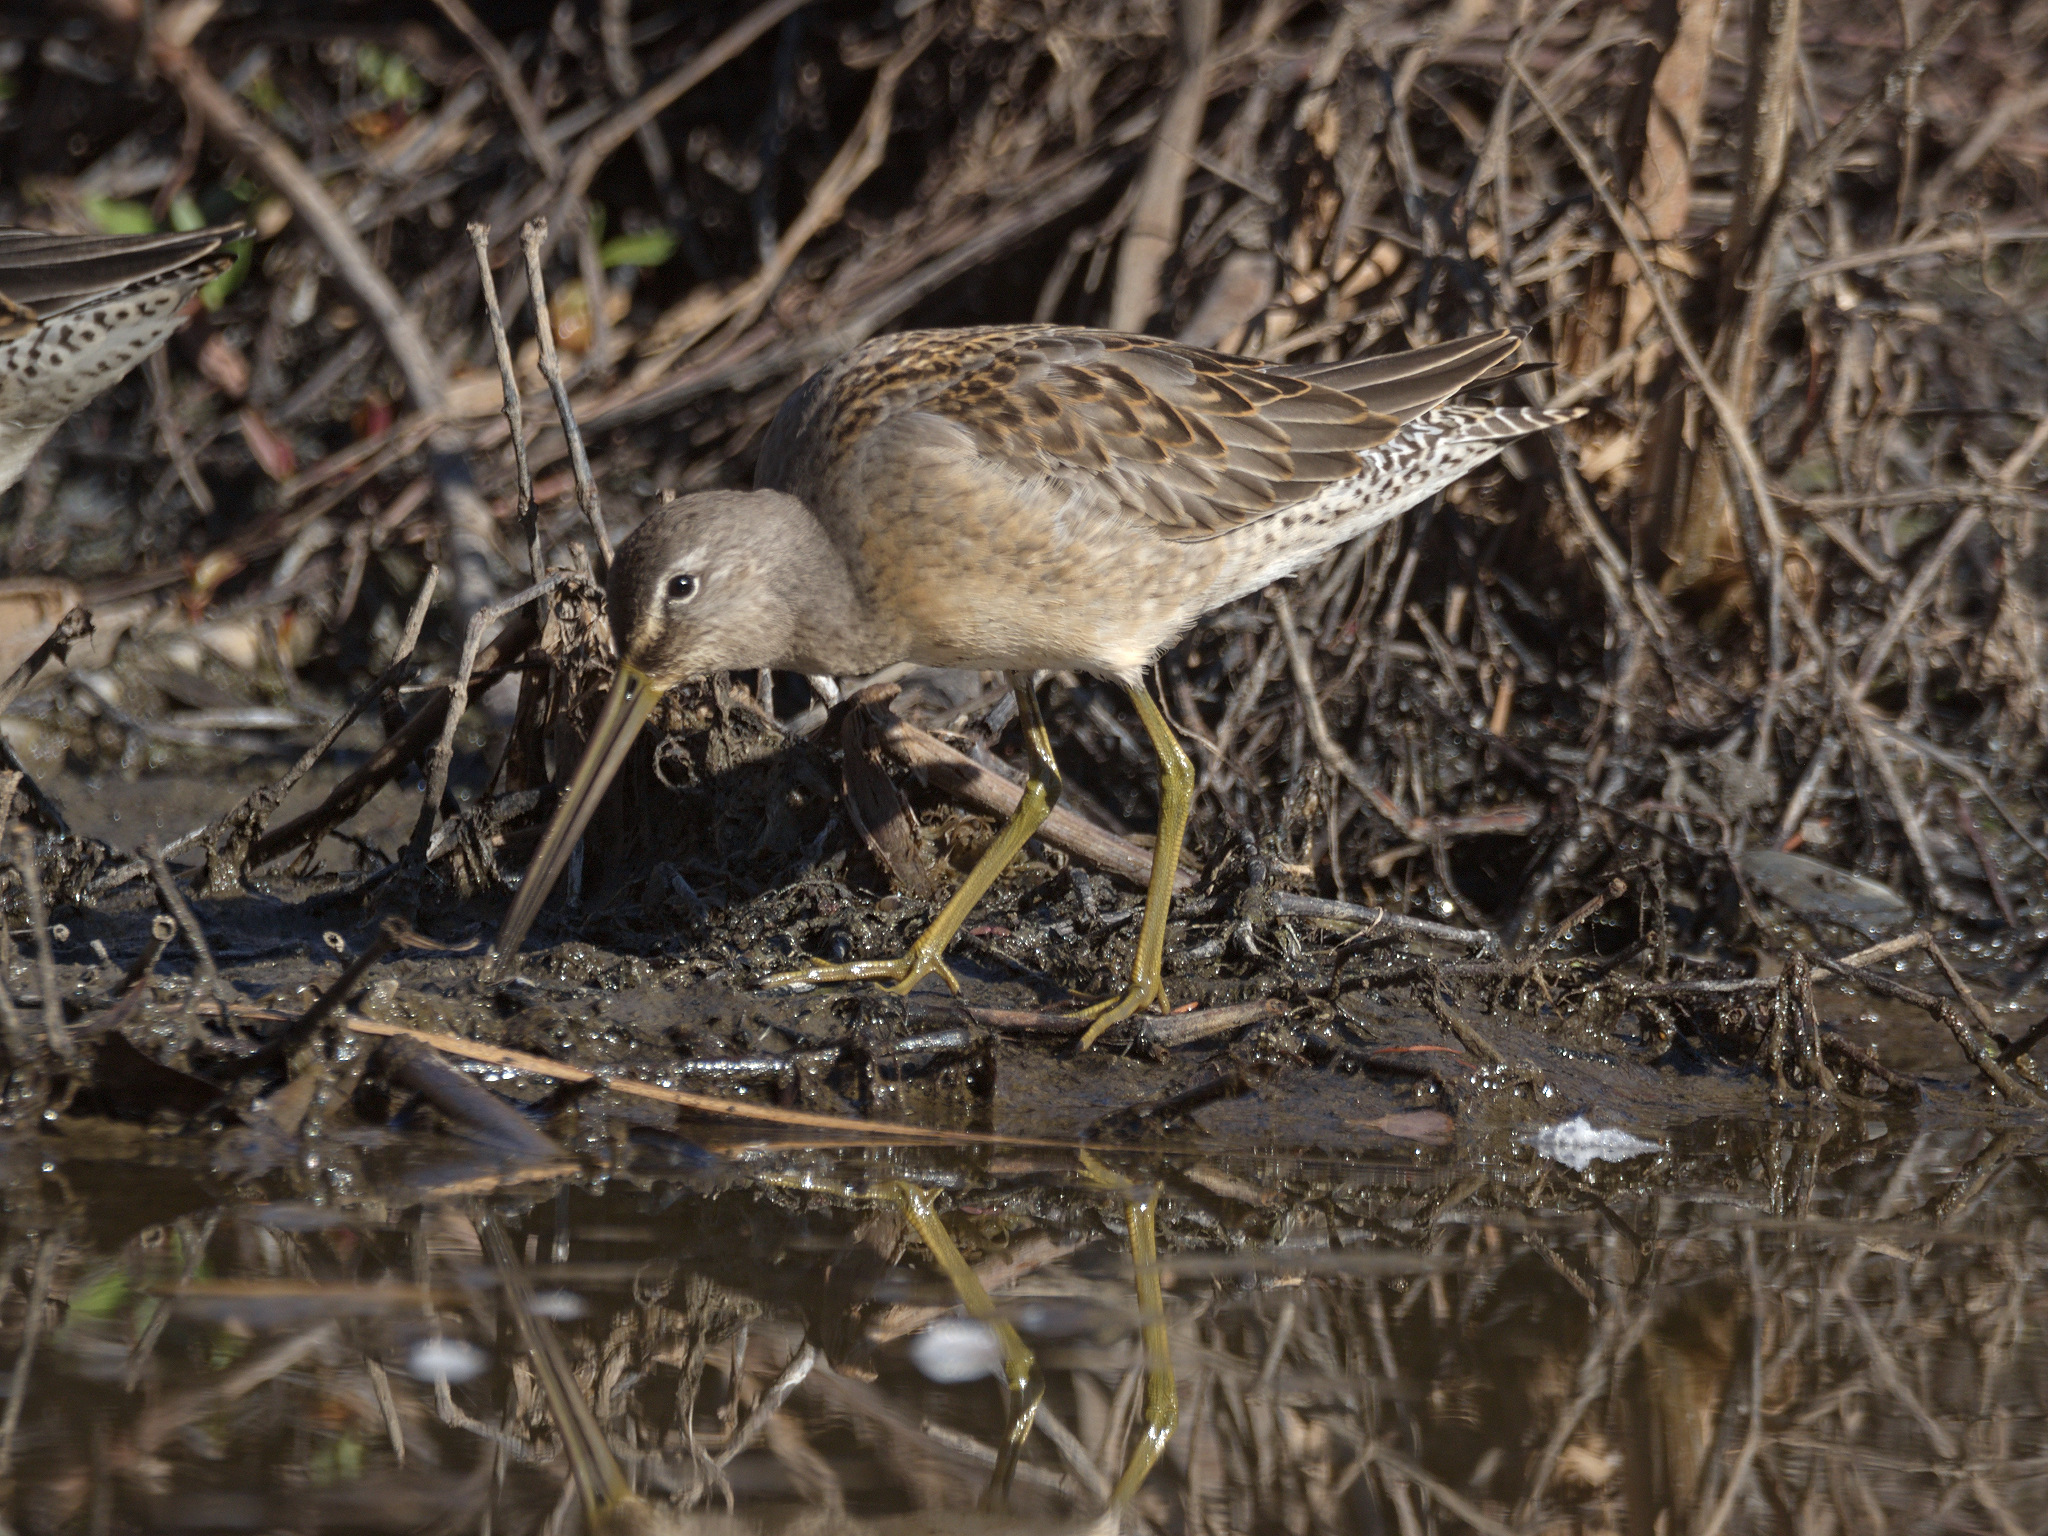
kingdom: Animalia
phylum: Chordata
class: Aves
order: Charadriiformes
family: Scolopacidae
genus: Limnodromus
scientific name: Limnodromus scolopaceus
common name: Long-billed dowitcher
